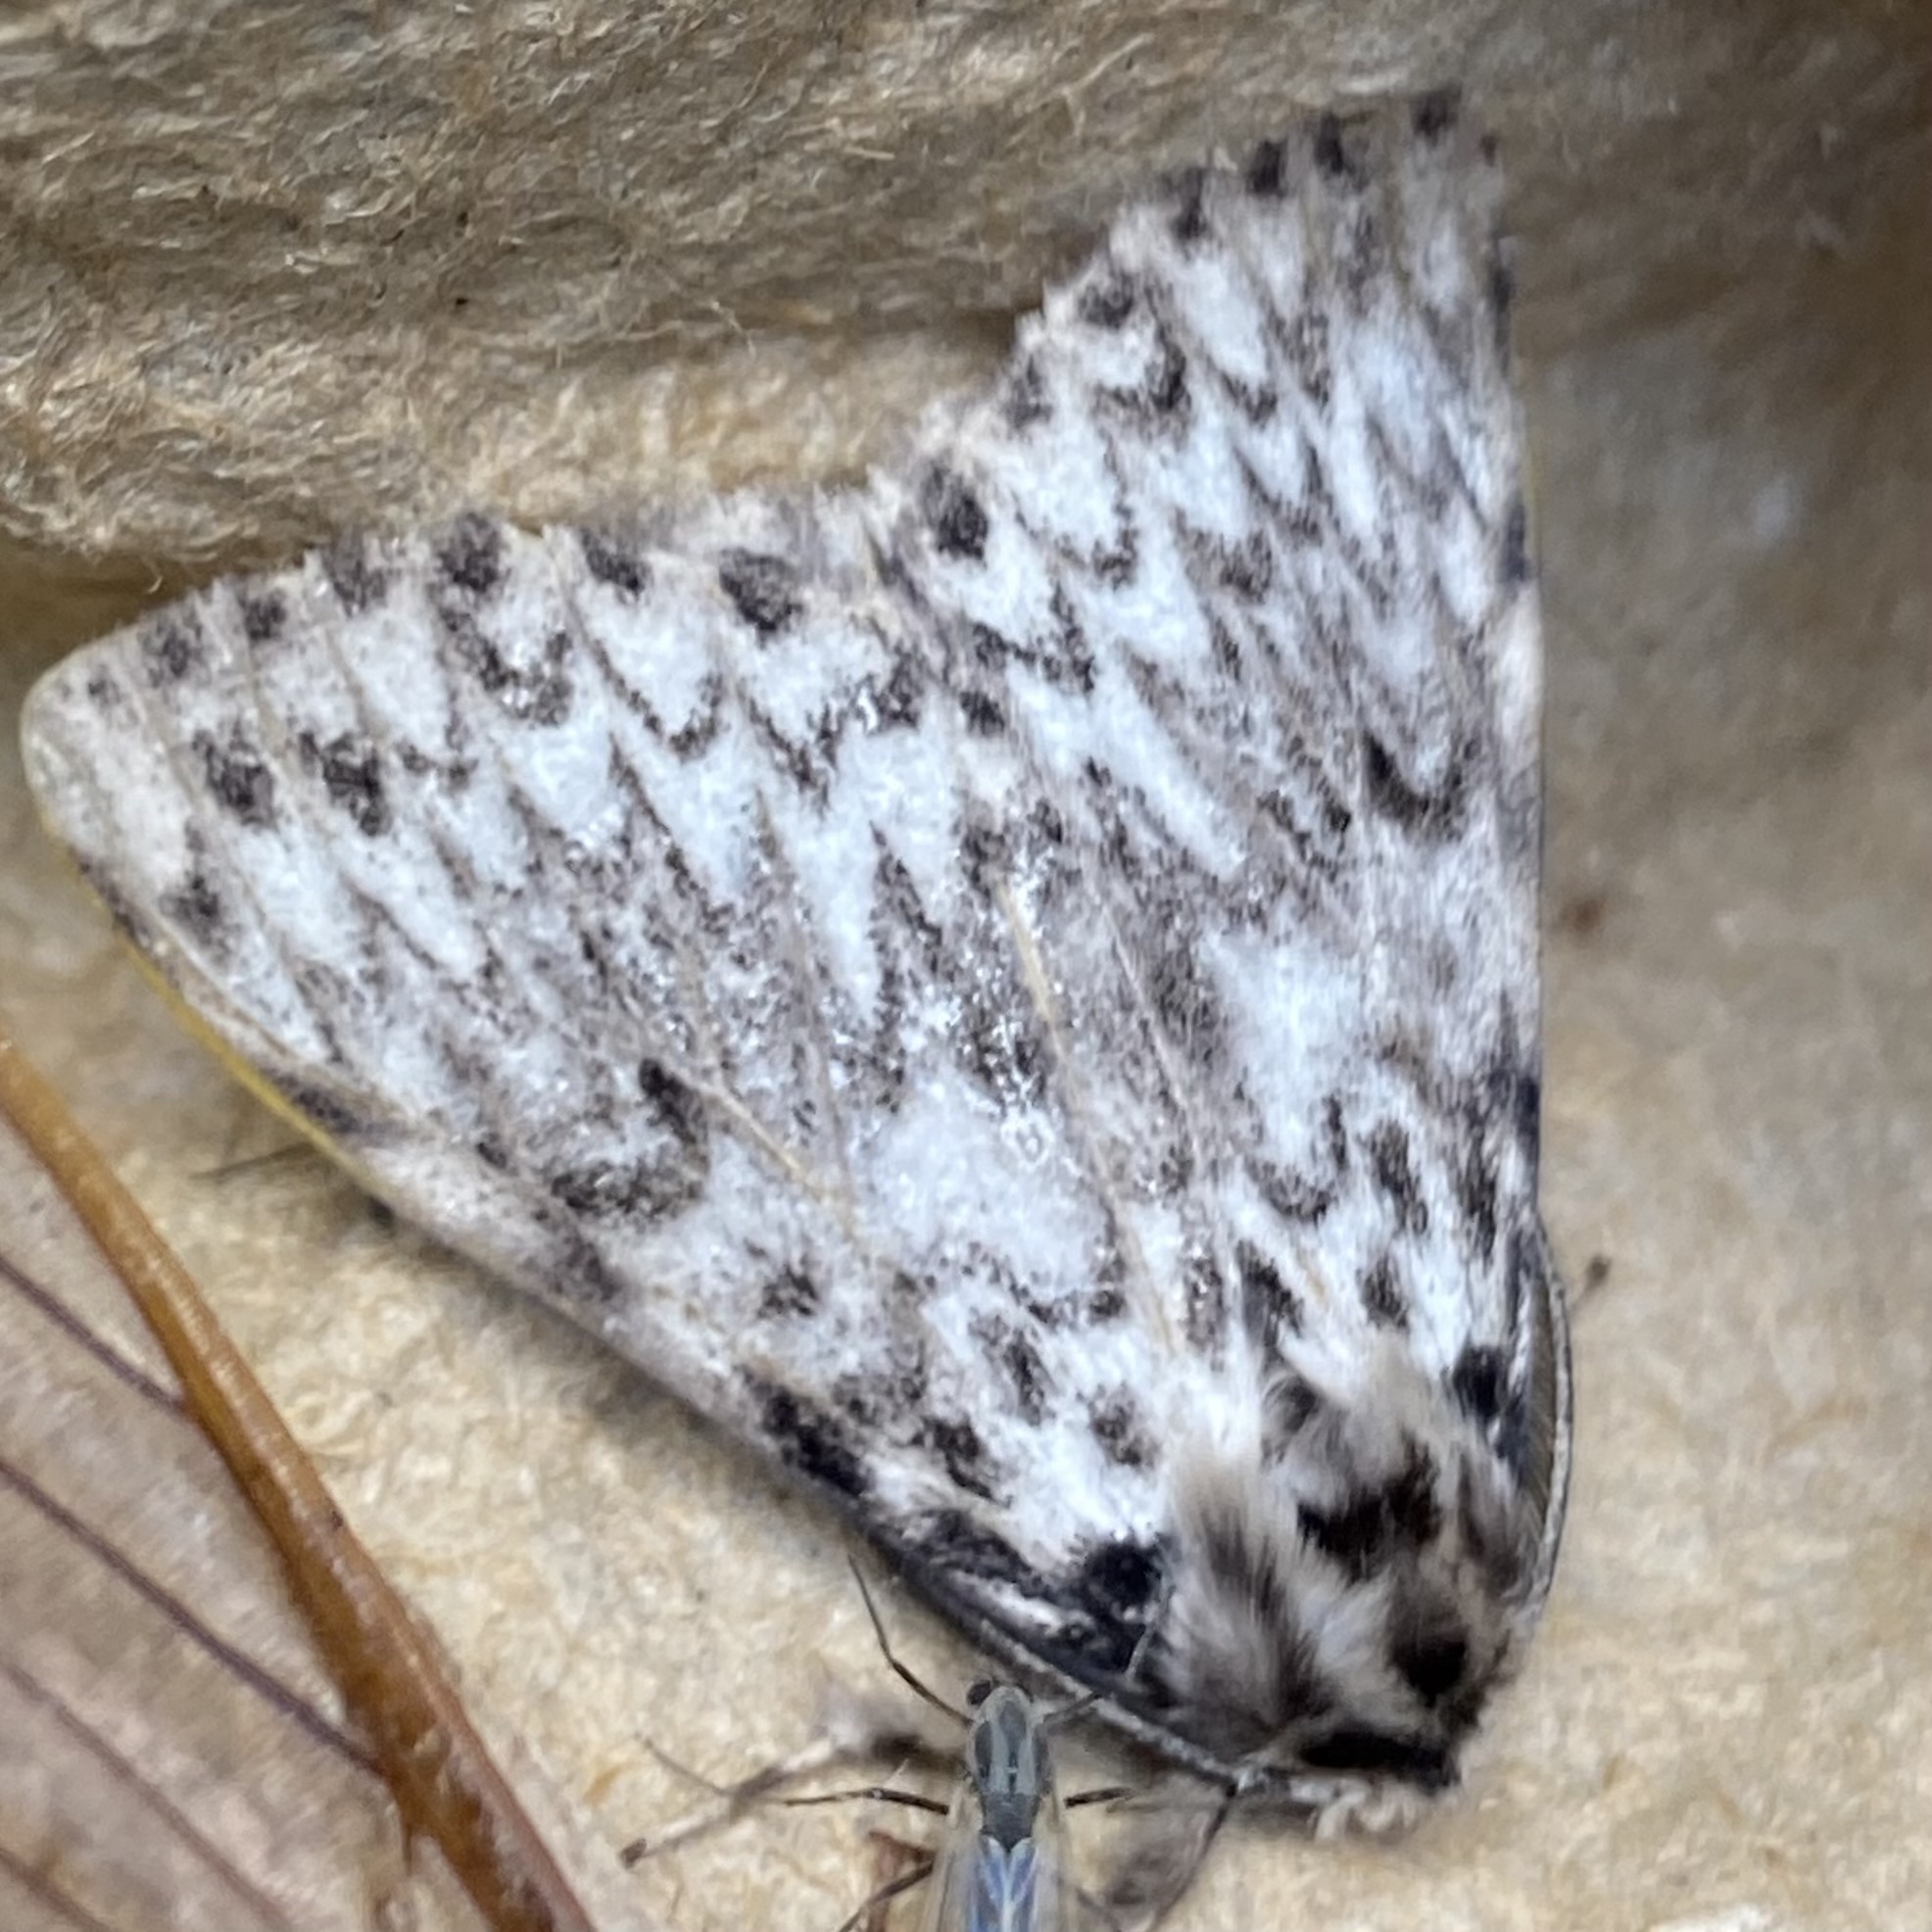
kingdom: Animalia
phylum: Arthropoda
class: Insecta
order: Lepidoptera
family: Erebidae
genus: Lymantria
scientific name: Lymantria monacha
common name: Black arches
